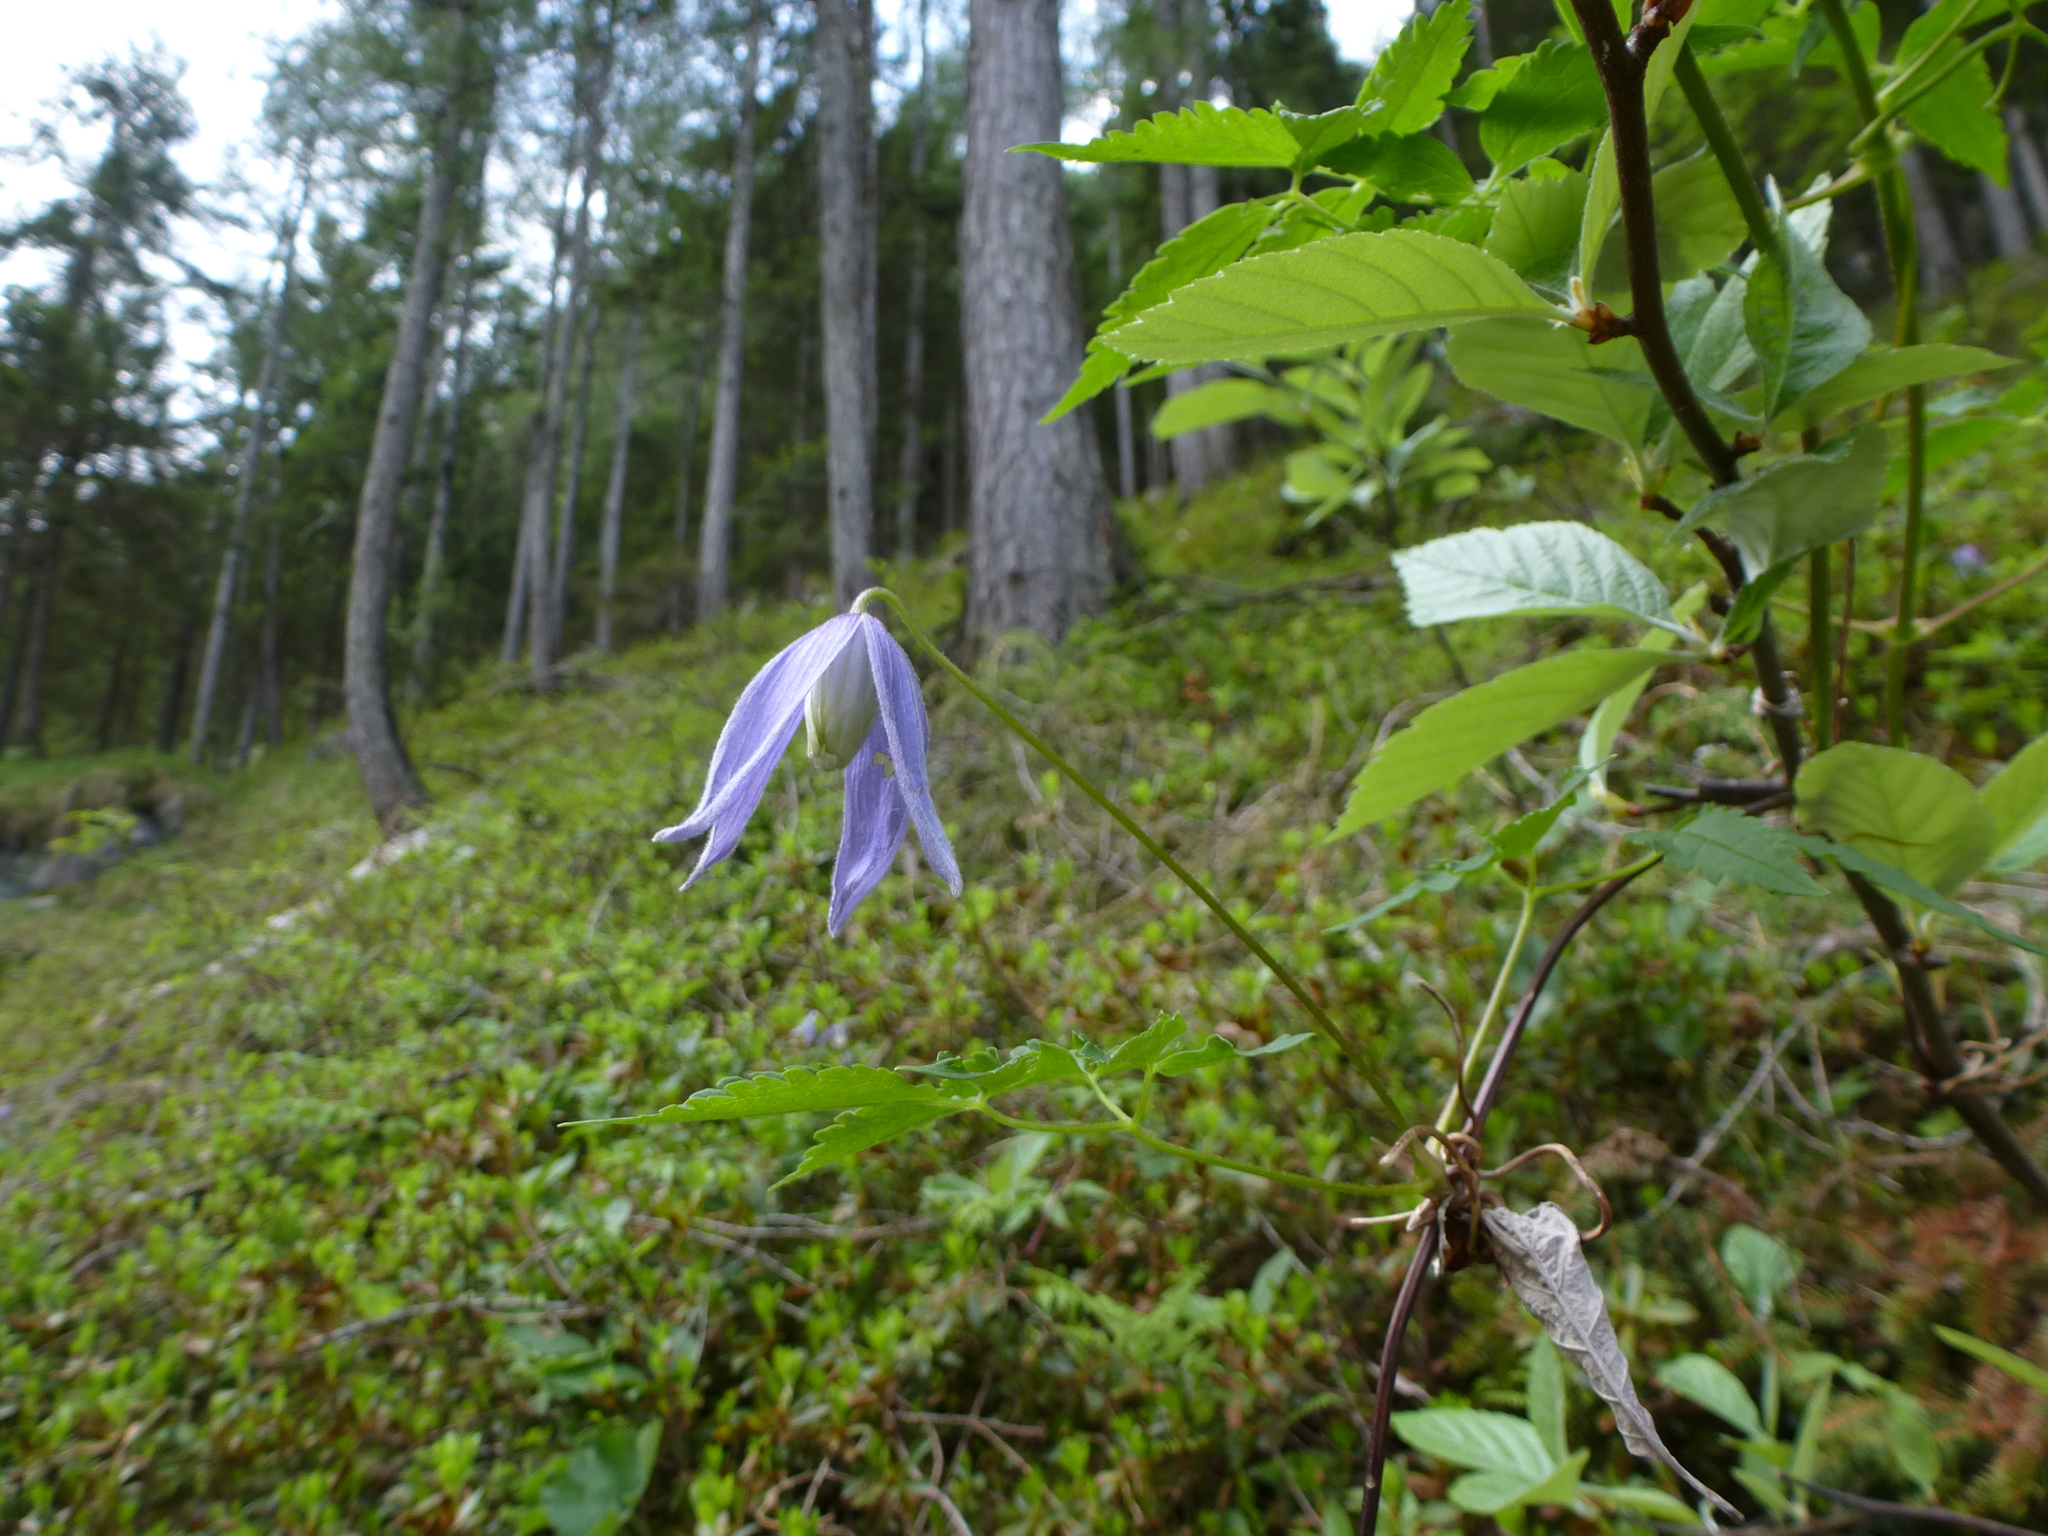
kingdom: Plantae
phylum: Tracheophyta
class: Magnoliopsida
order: Ranunculales
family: Ranunculaceae
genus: Clematis
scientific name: Clematis alpina
